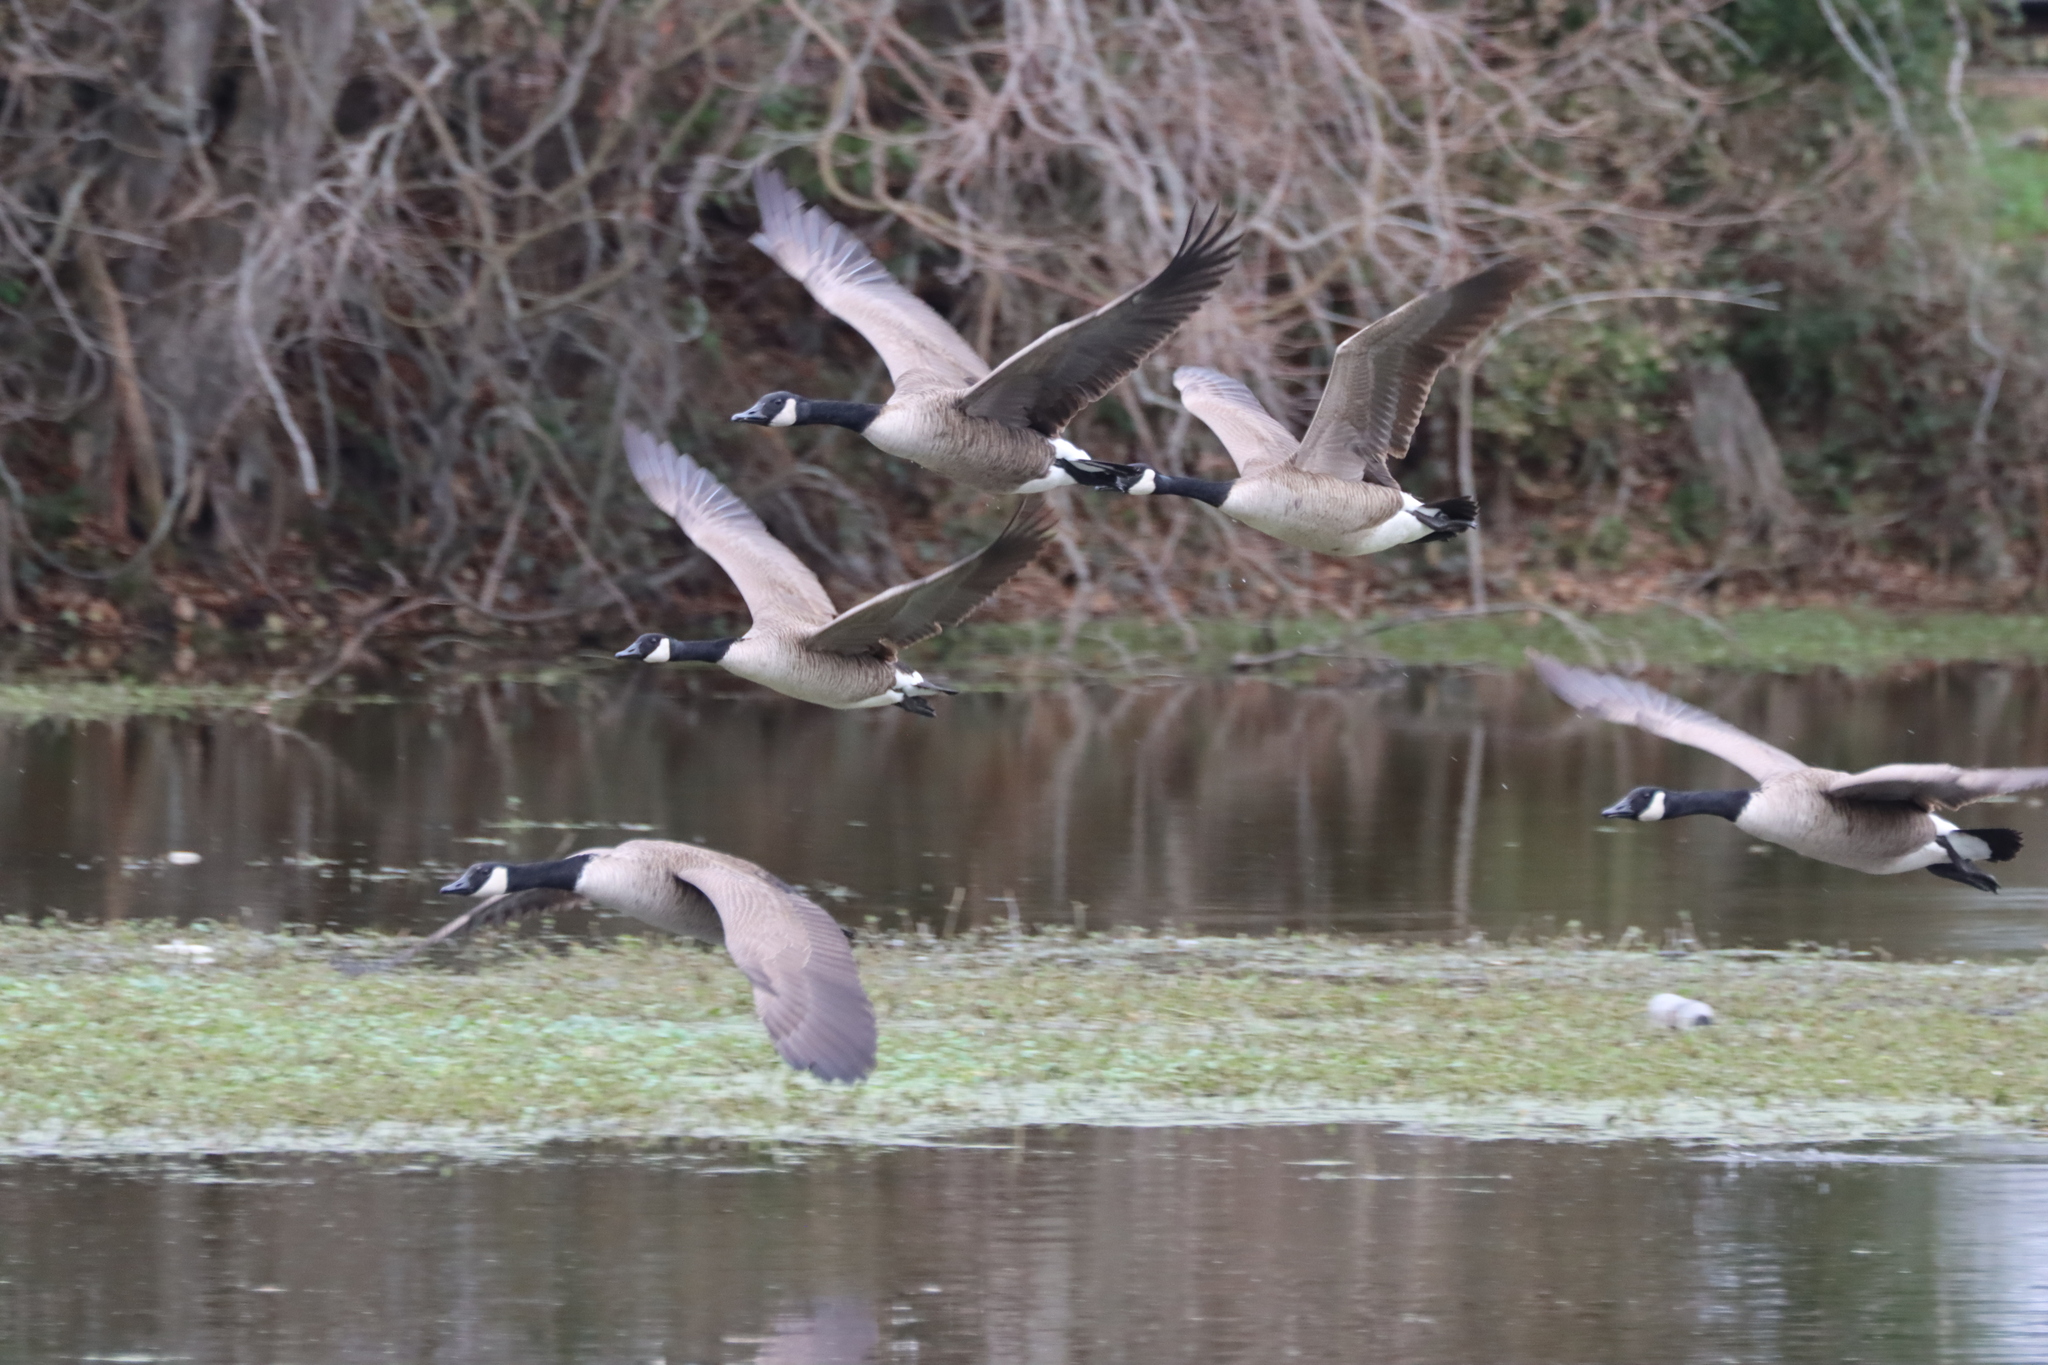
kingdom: Animalia
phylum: Chordata
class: Aves
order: Anseriformes
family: Anatidae
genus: Branta
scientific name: Branta canadensis
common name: Canada goose
